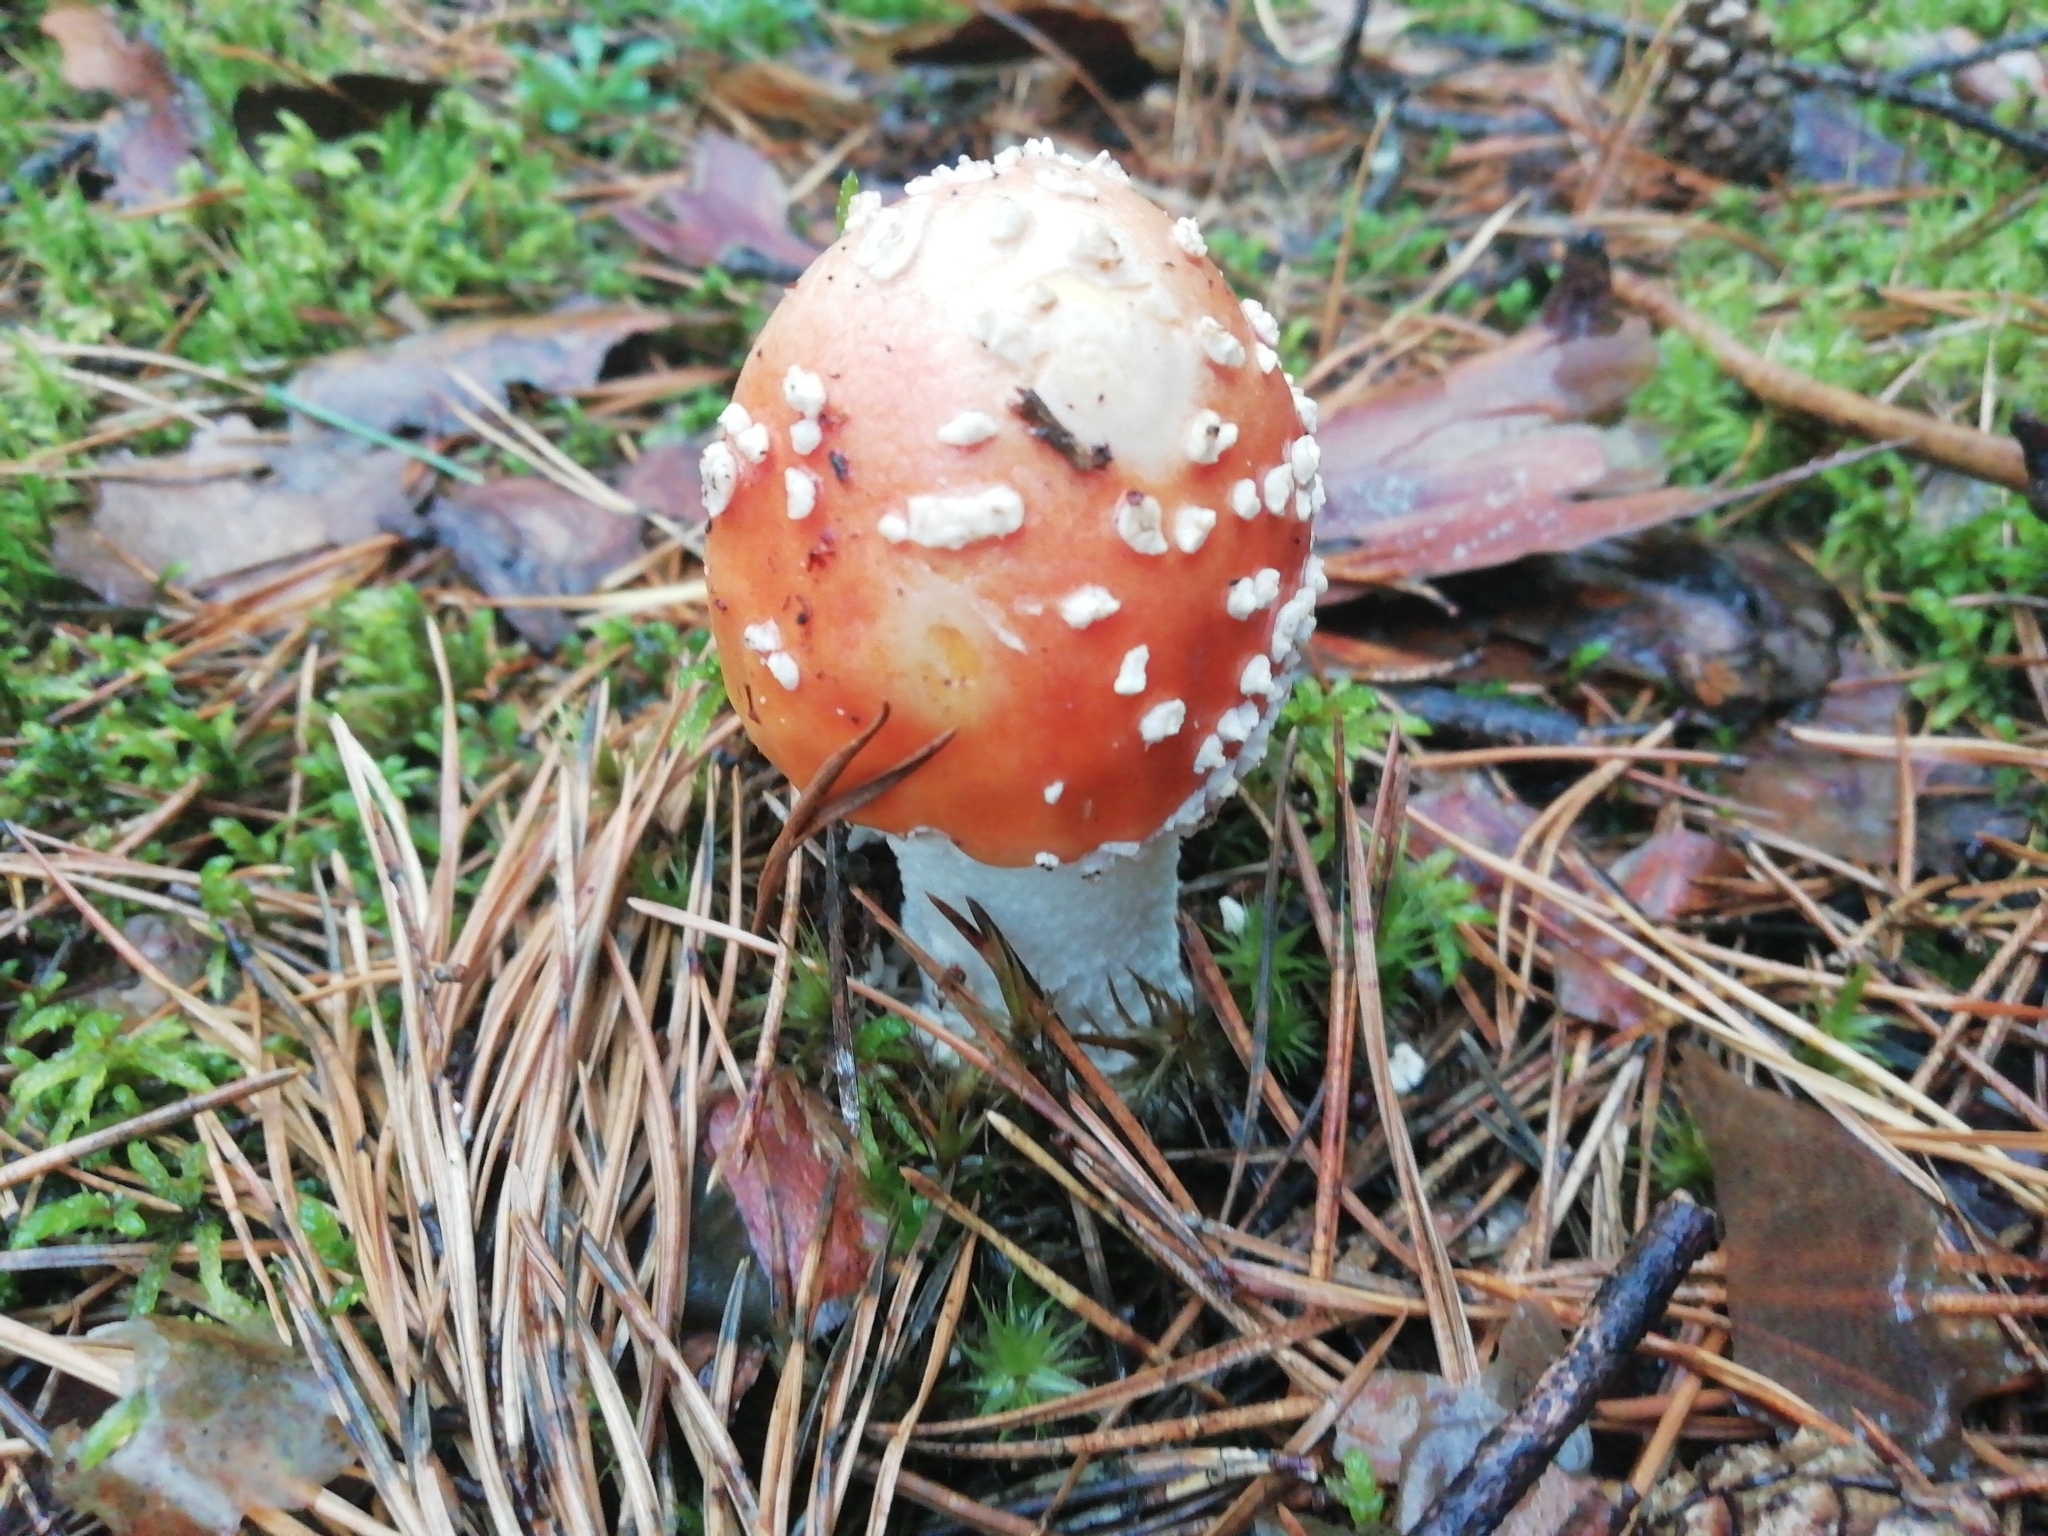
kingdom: Fungi
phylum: Basidiomycota
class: Agaricomycetes
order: Agaricales
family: Amanitaceae
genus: Amanita
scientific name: Amanita muscaria
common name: Fly agaric
